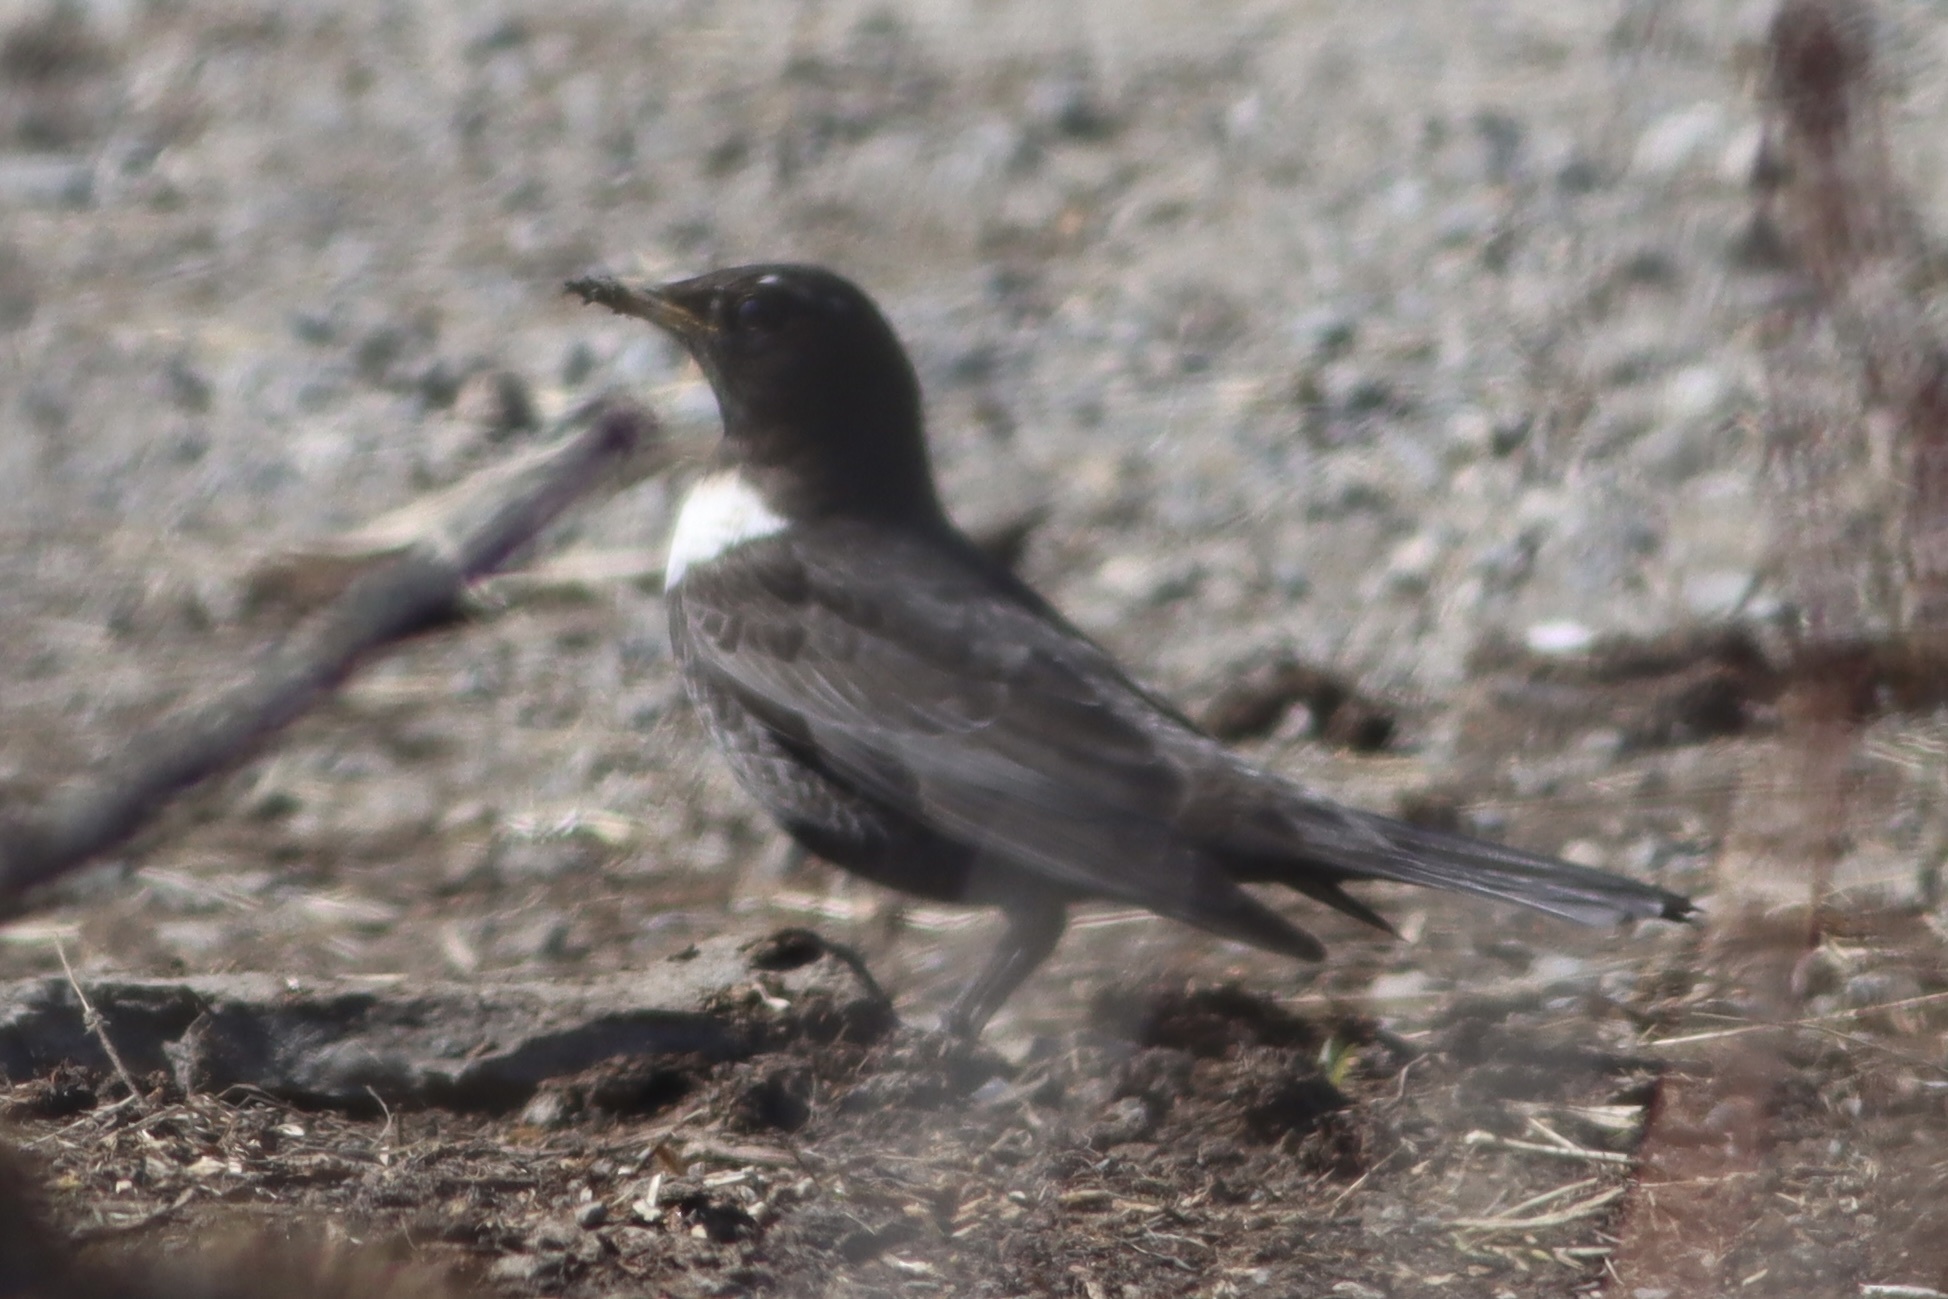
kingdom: Animalia
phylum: Chordata
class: Aves
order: Passeriformes
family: Turdidae
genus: Turdus
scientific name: Turdus torquatus
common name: Ring ouzel
